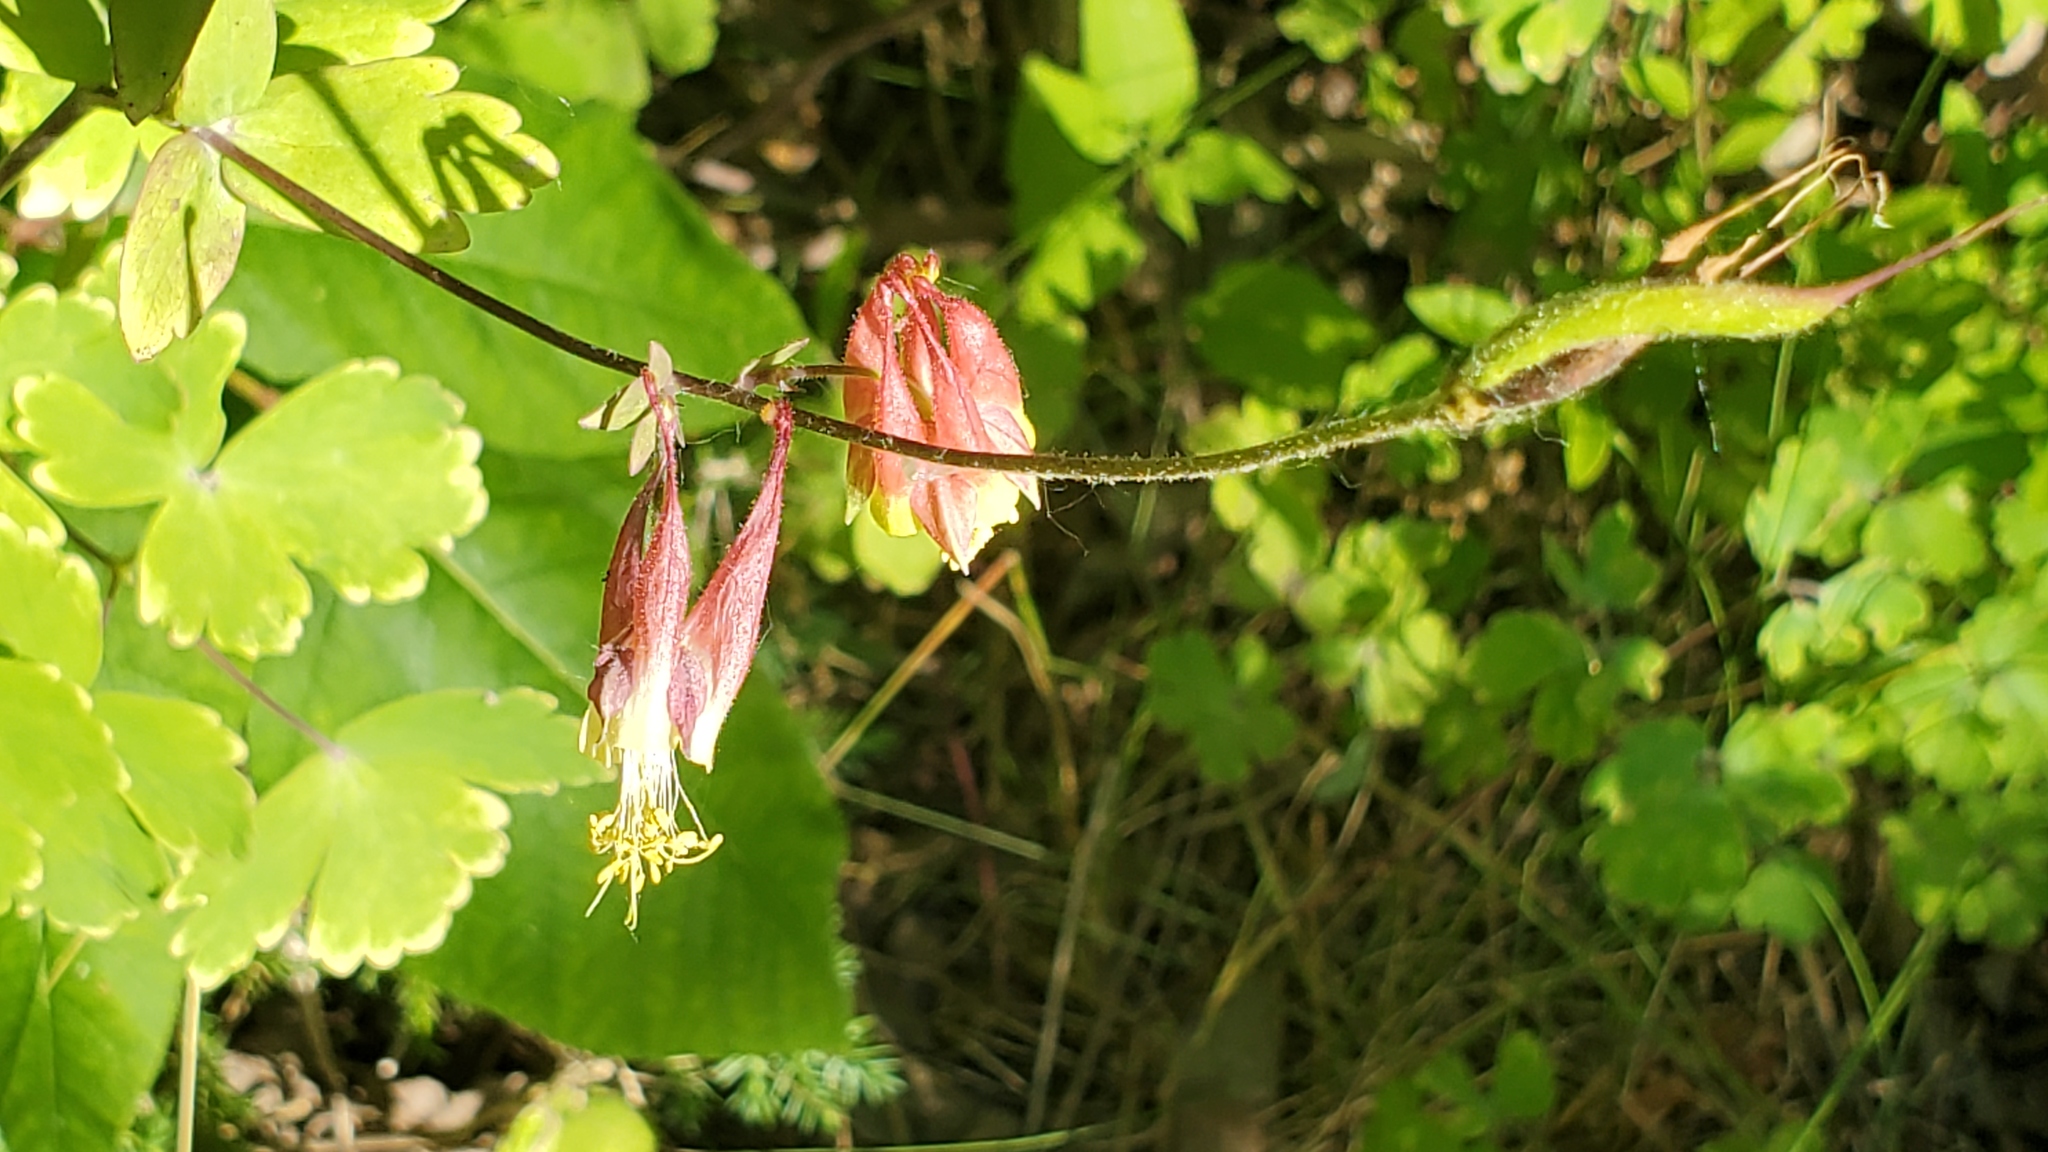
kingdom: Plantae
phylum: Tracheophyta
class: Magnoliopsida
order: Ranunculales
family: Ranunculaceae
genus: Aquilegia
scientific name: Aquilegia canadensis
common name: American columbine
